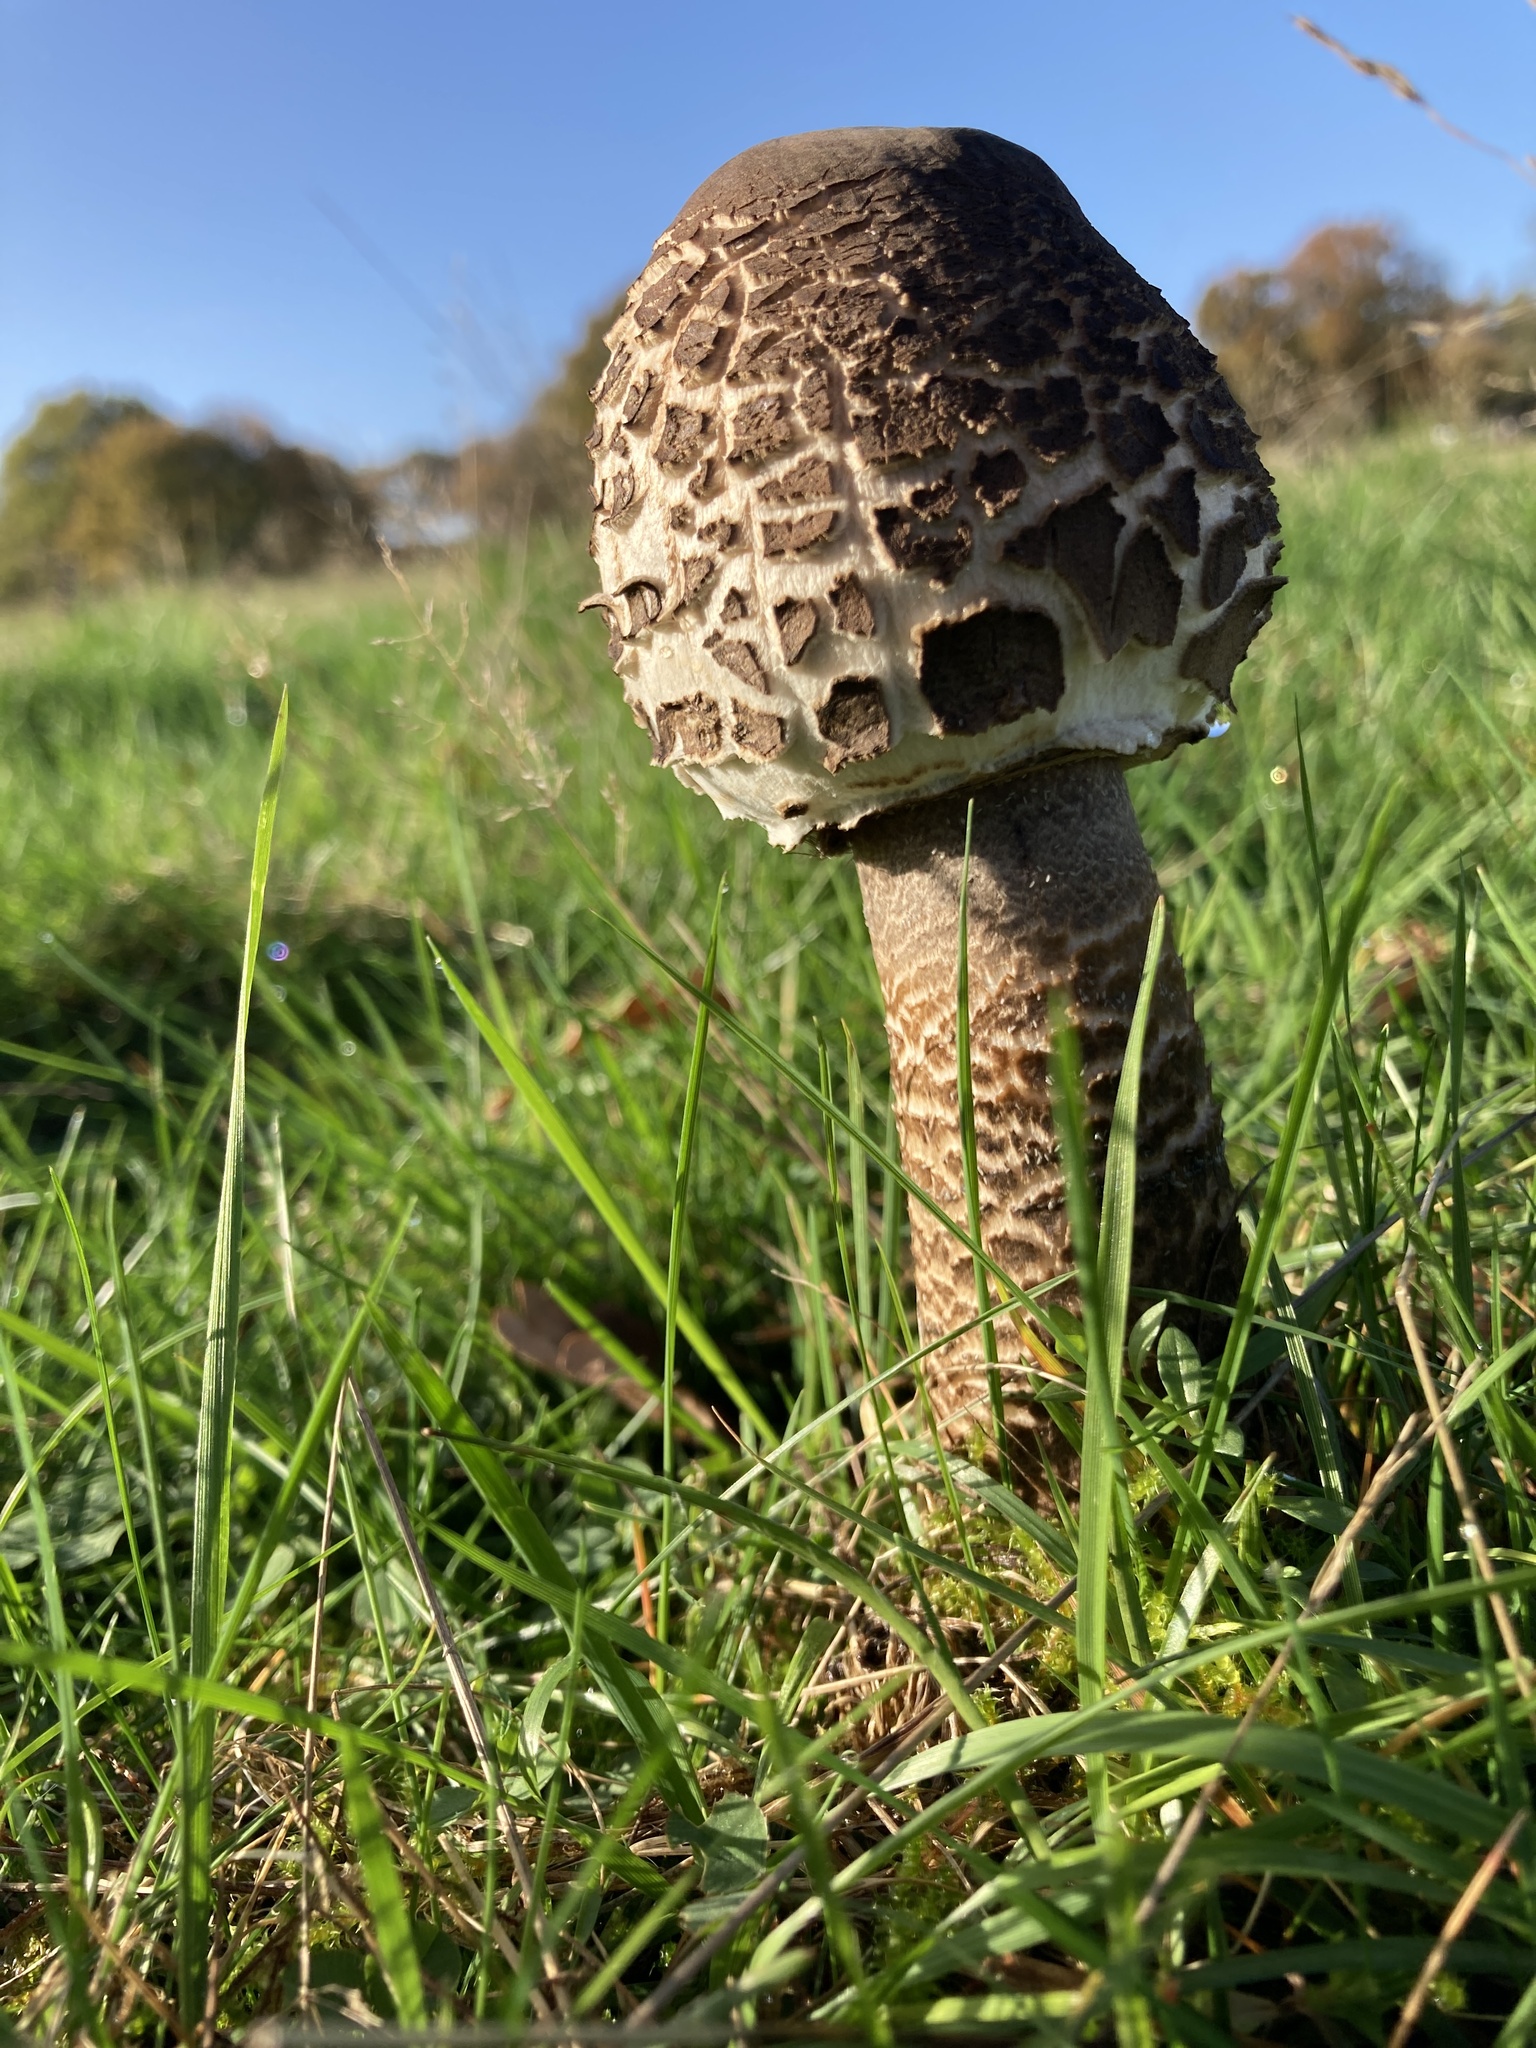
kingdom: Fungi
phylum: Basidiomycota
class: Agaricomycetes
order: Agaricales
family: Agaricaceae
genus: Macrolepiota
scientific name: Macrolepiota procera
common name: Parasol
